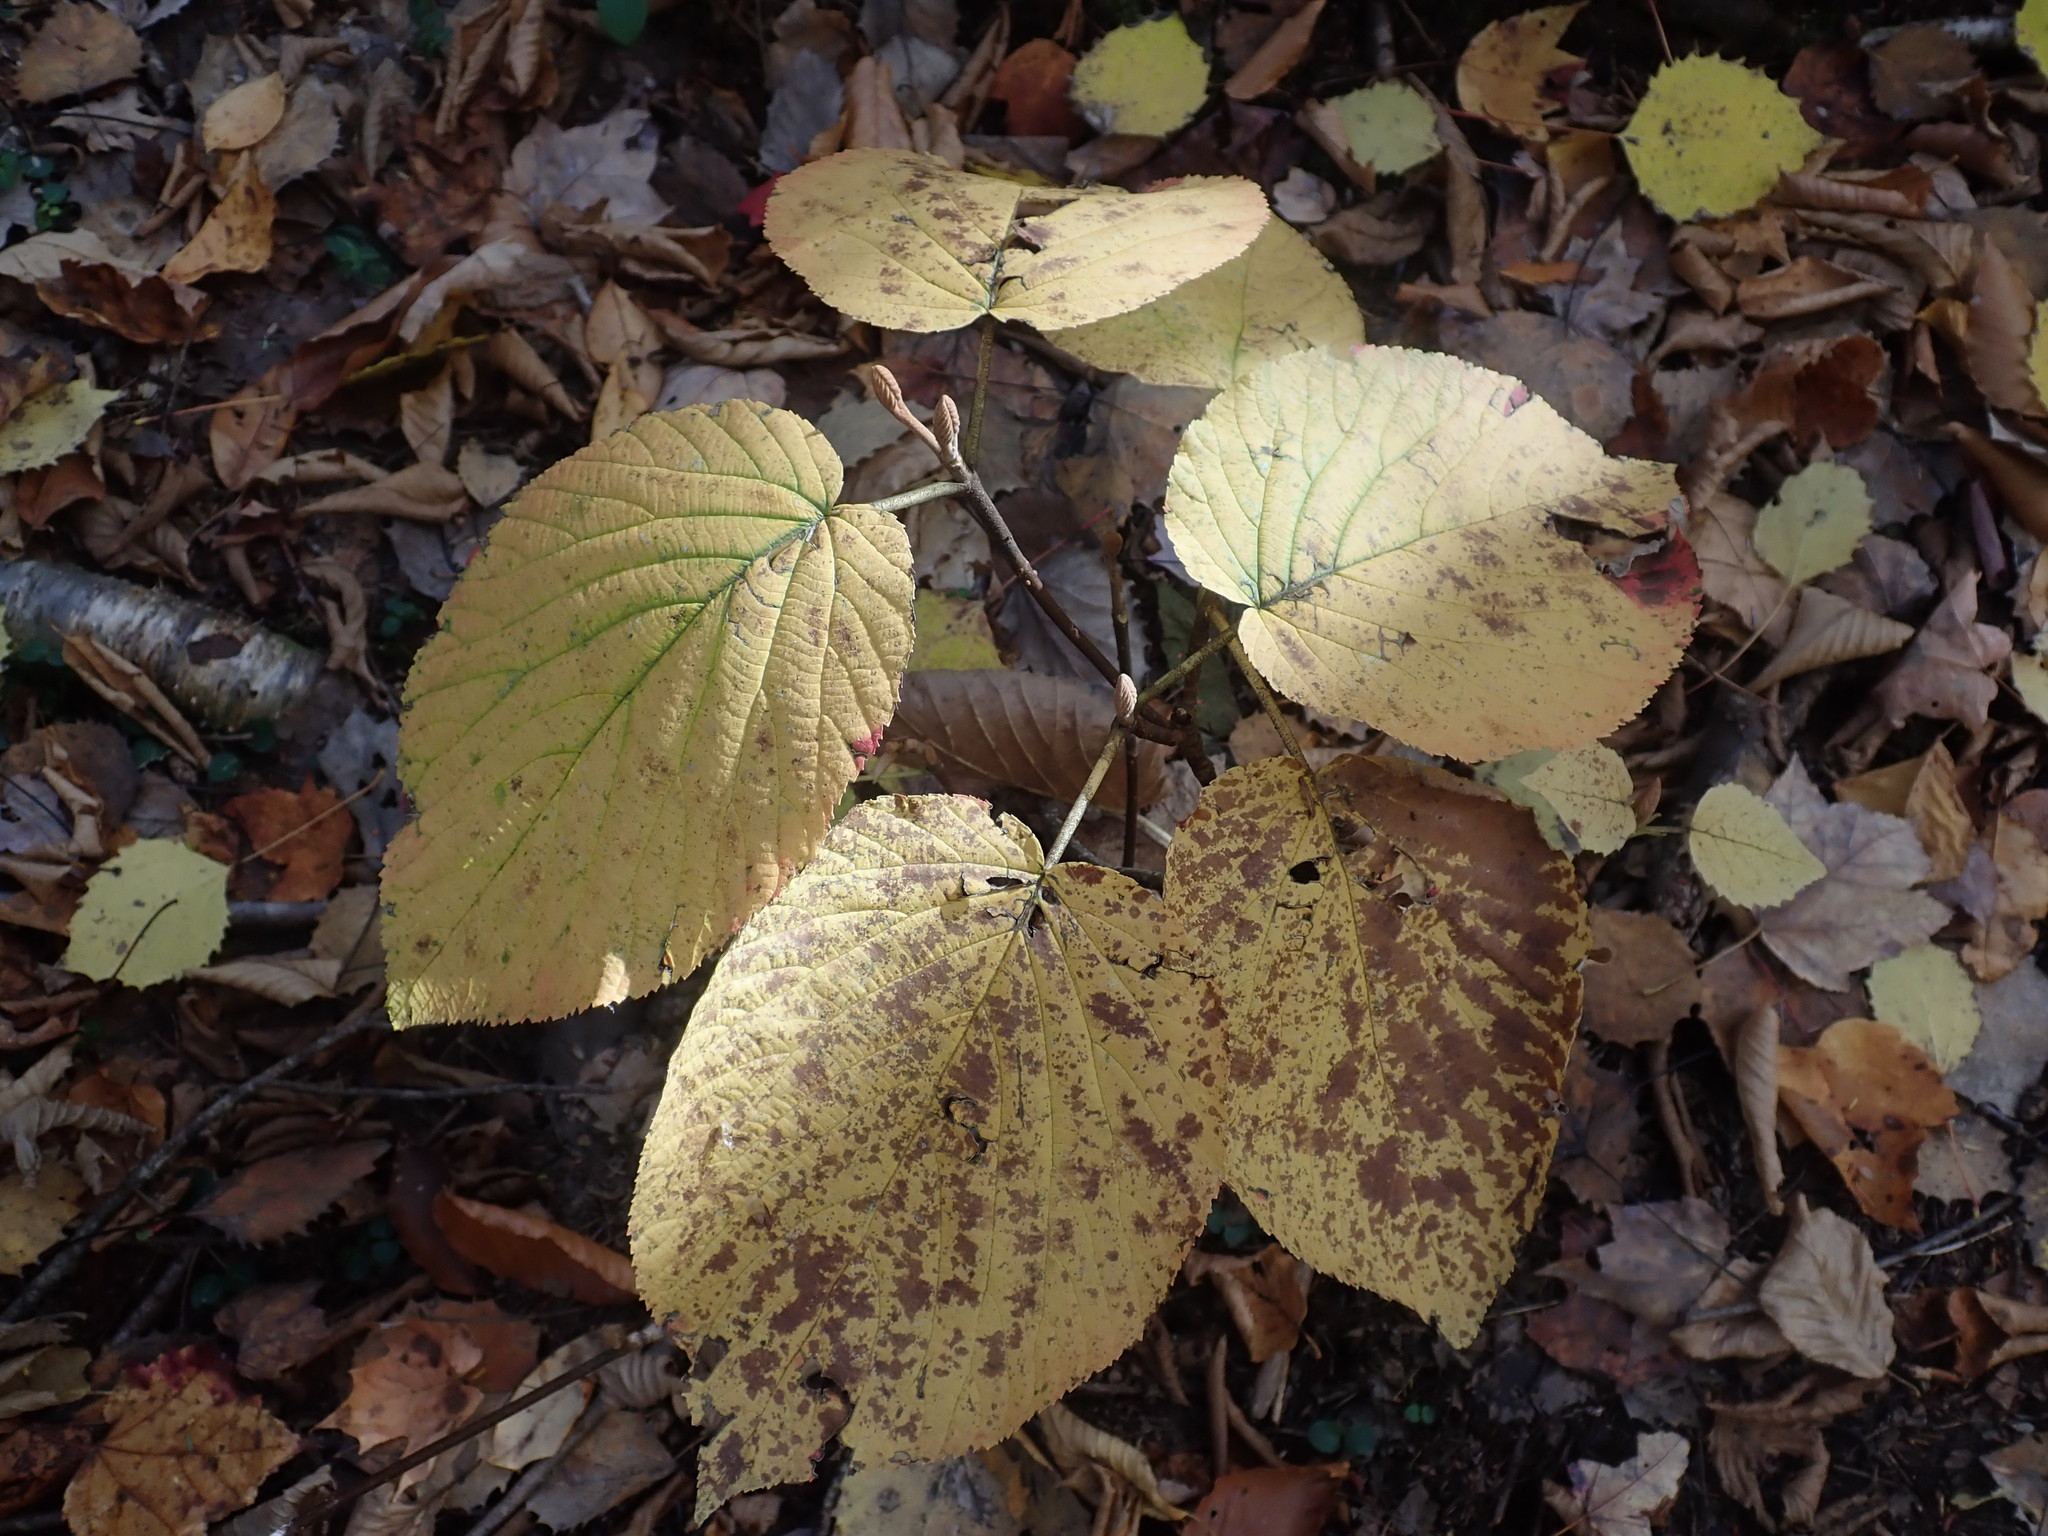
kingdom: Plantae
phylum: Tracheophyta
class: Magnoliopsida
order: Dipsacales
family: Viburnaceae
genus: Viburnum
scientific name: Viburnum lantanoides
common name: Hobblebush
